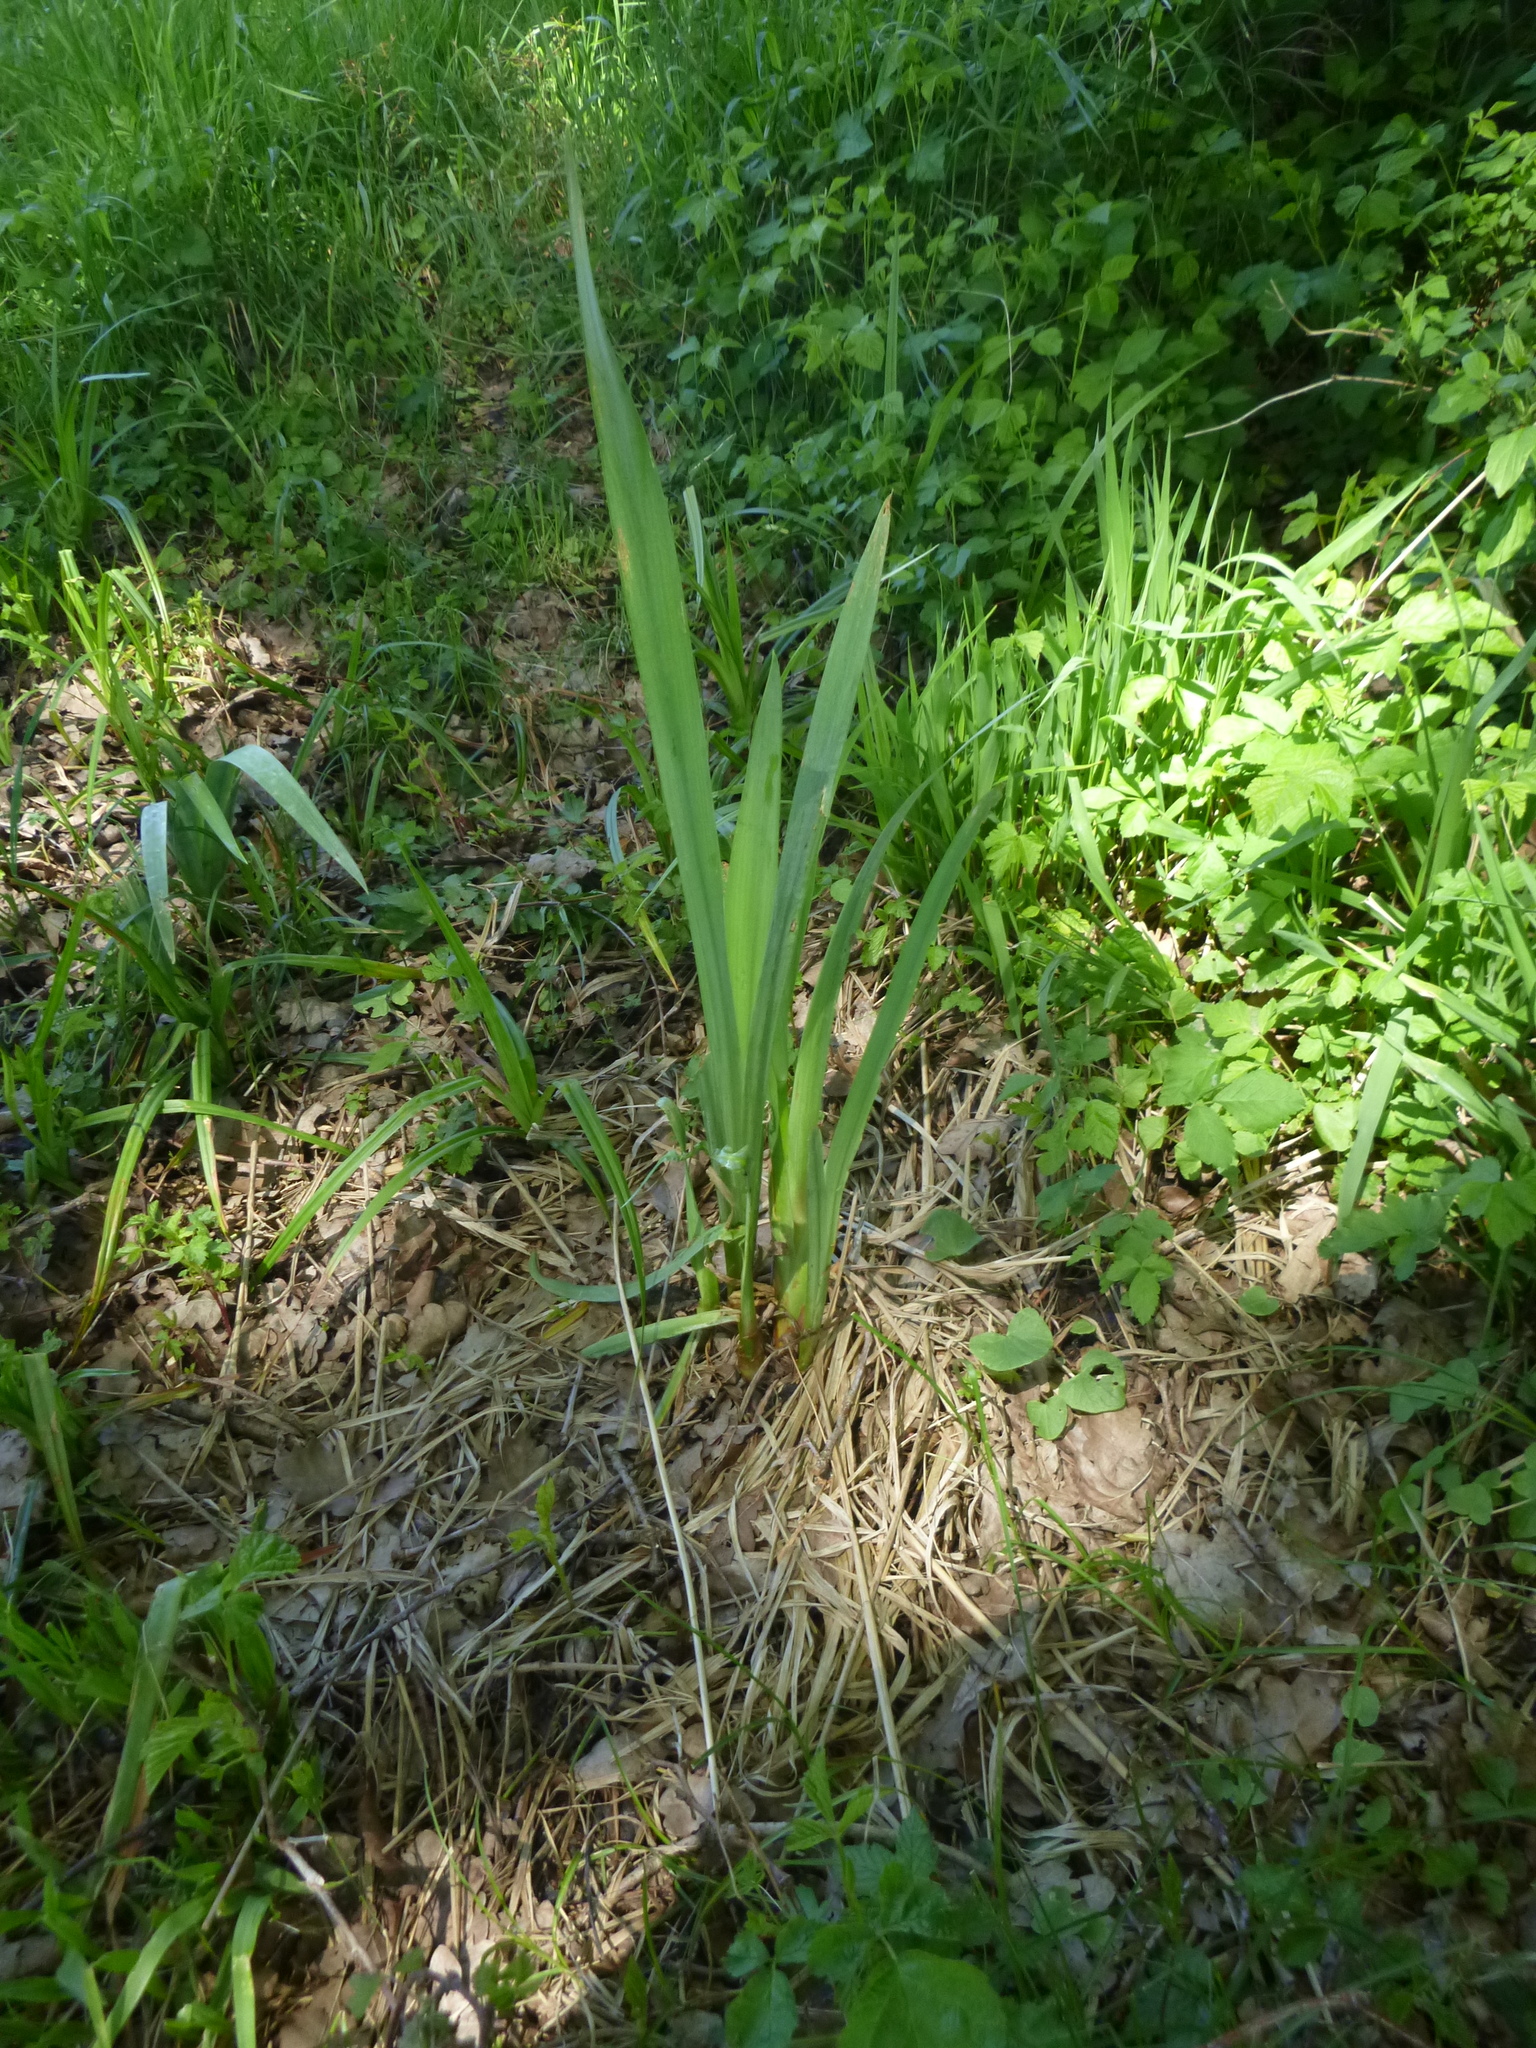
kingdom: Plantae
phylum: Tracheophyta
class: Liliopsida
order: Asparagales
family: Iridaceae
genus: Iris
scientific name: Iris pseudacorus
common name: Yellow flag
